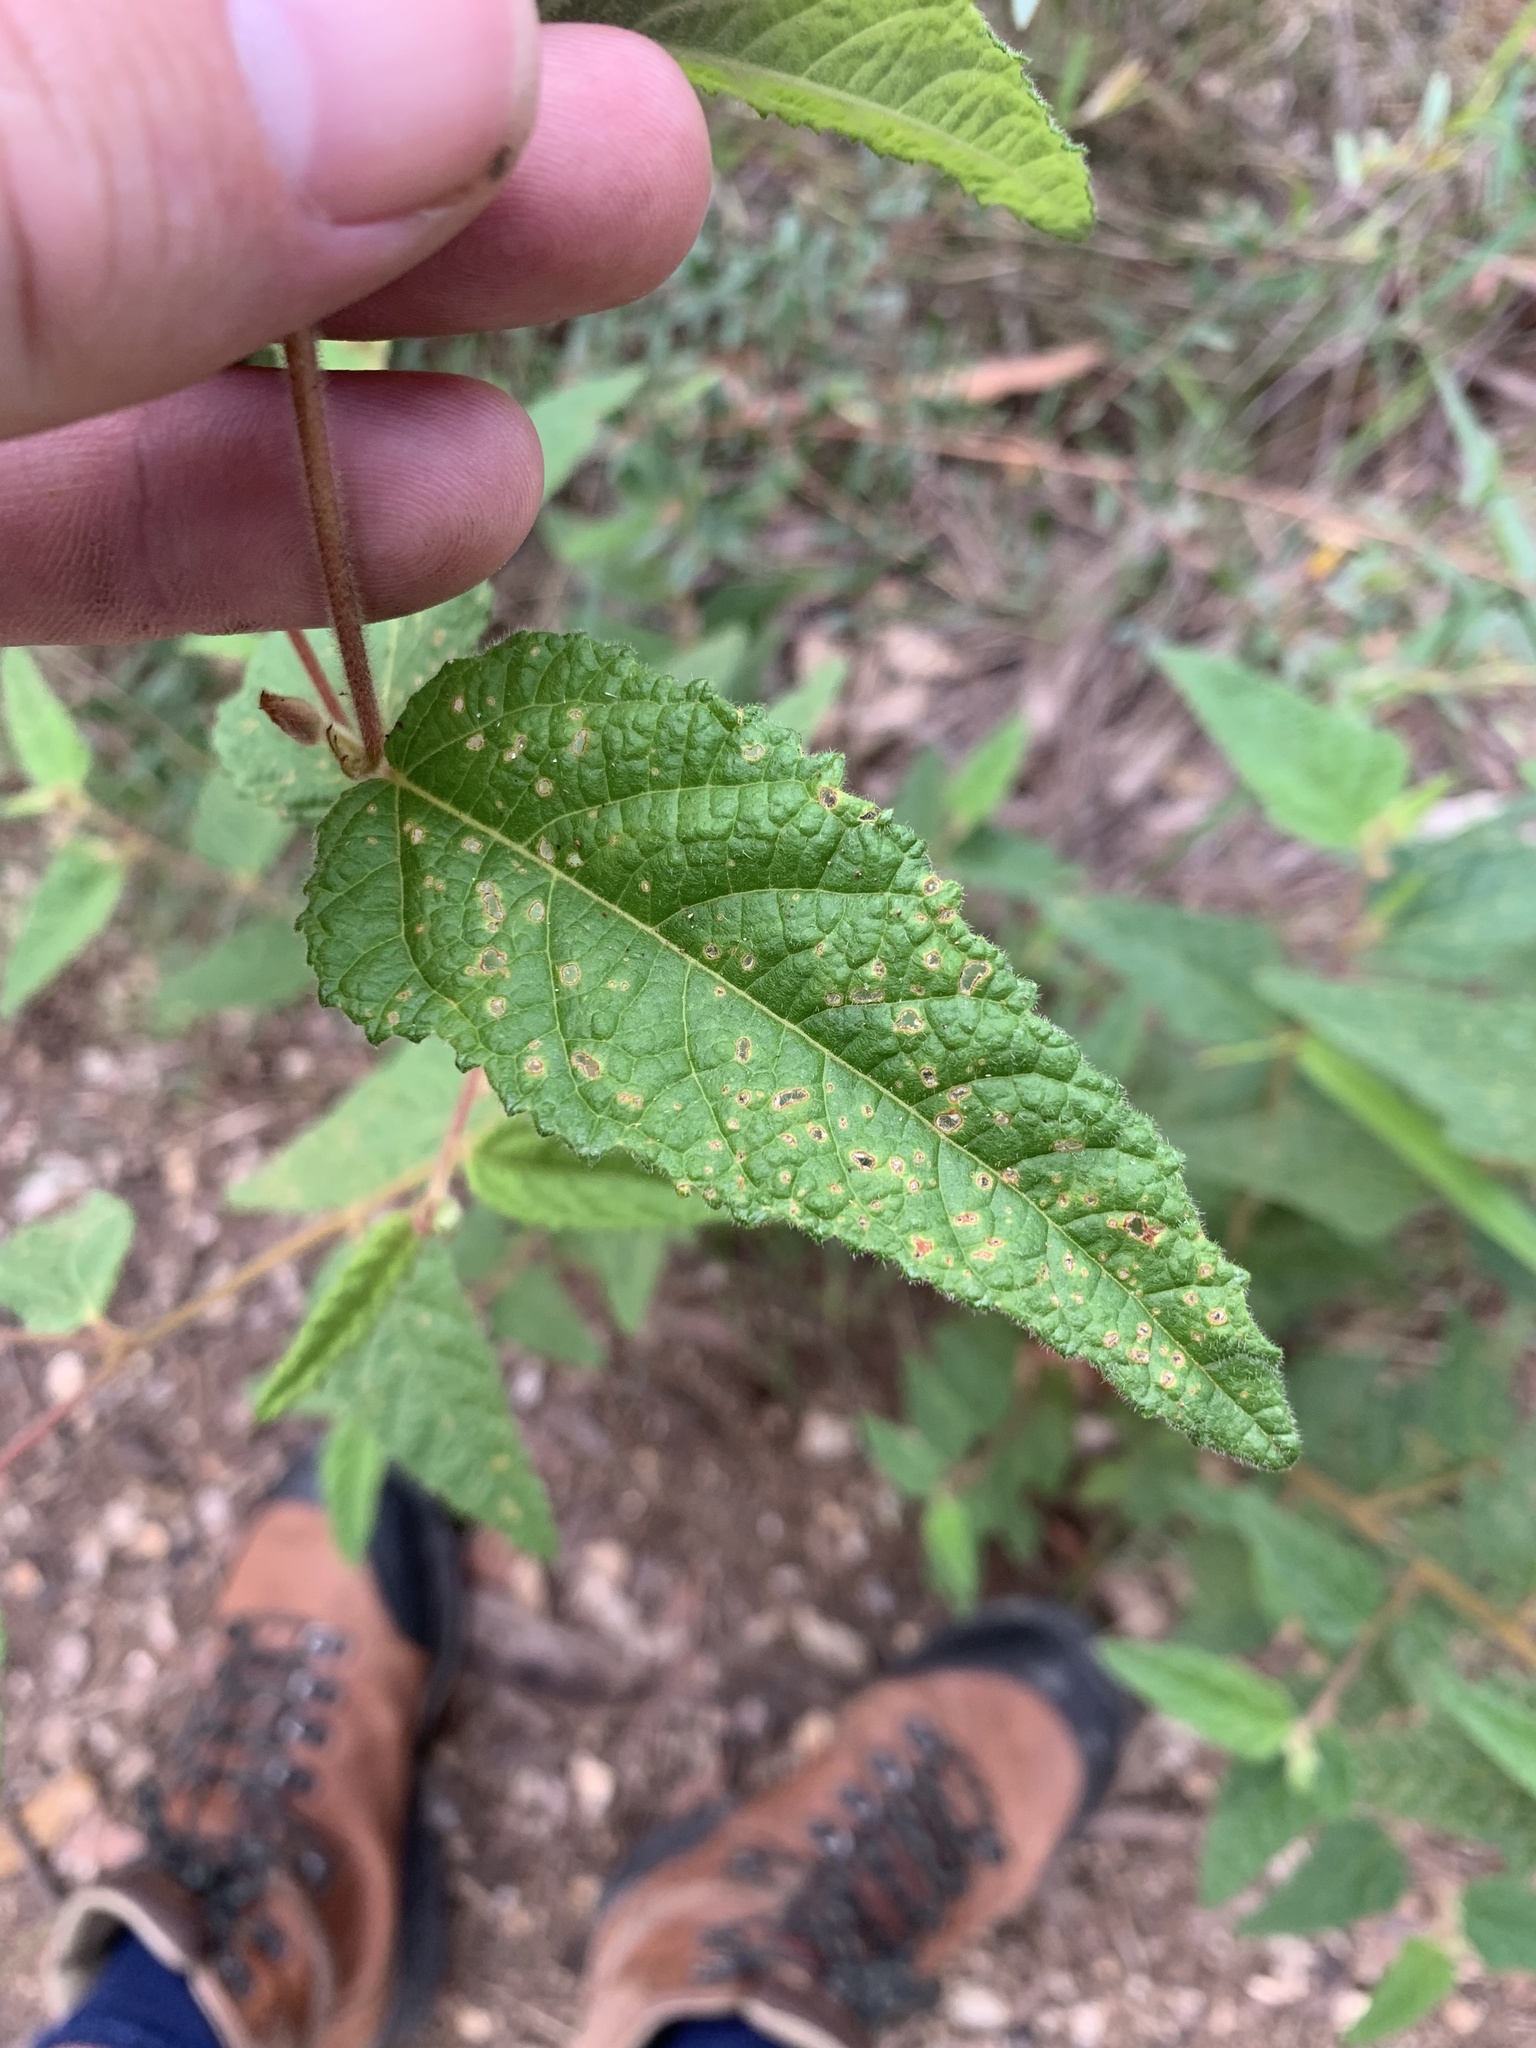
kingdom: Plantae
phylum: Tracheophyta
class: Magnoliopsida
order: Malvales
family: Malvaceae
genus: Commersonia
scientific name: Commersonia dasyphylla
